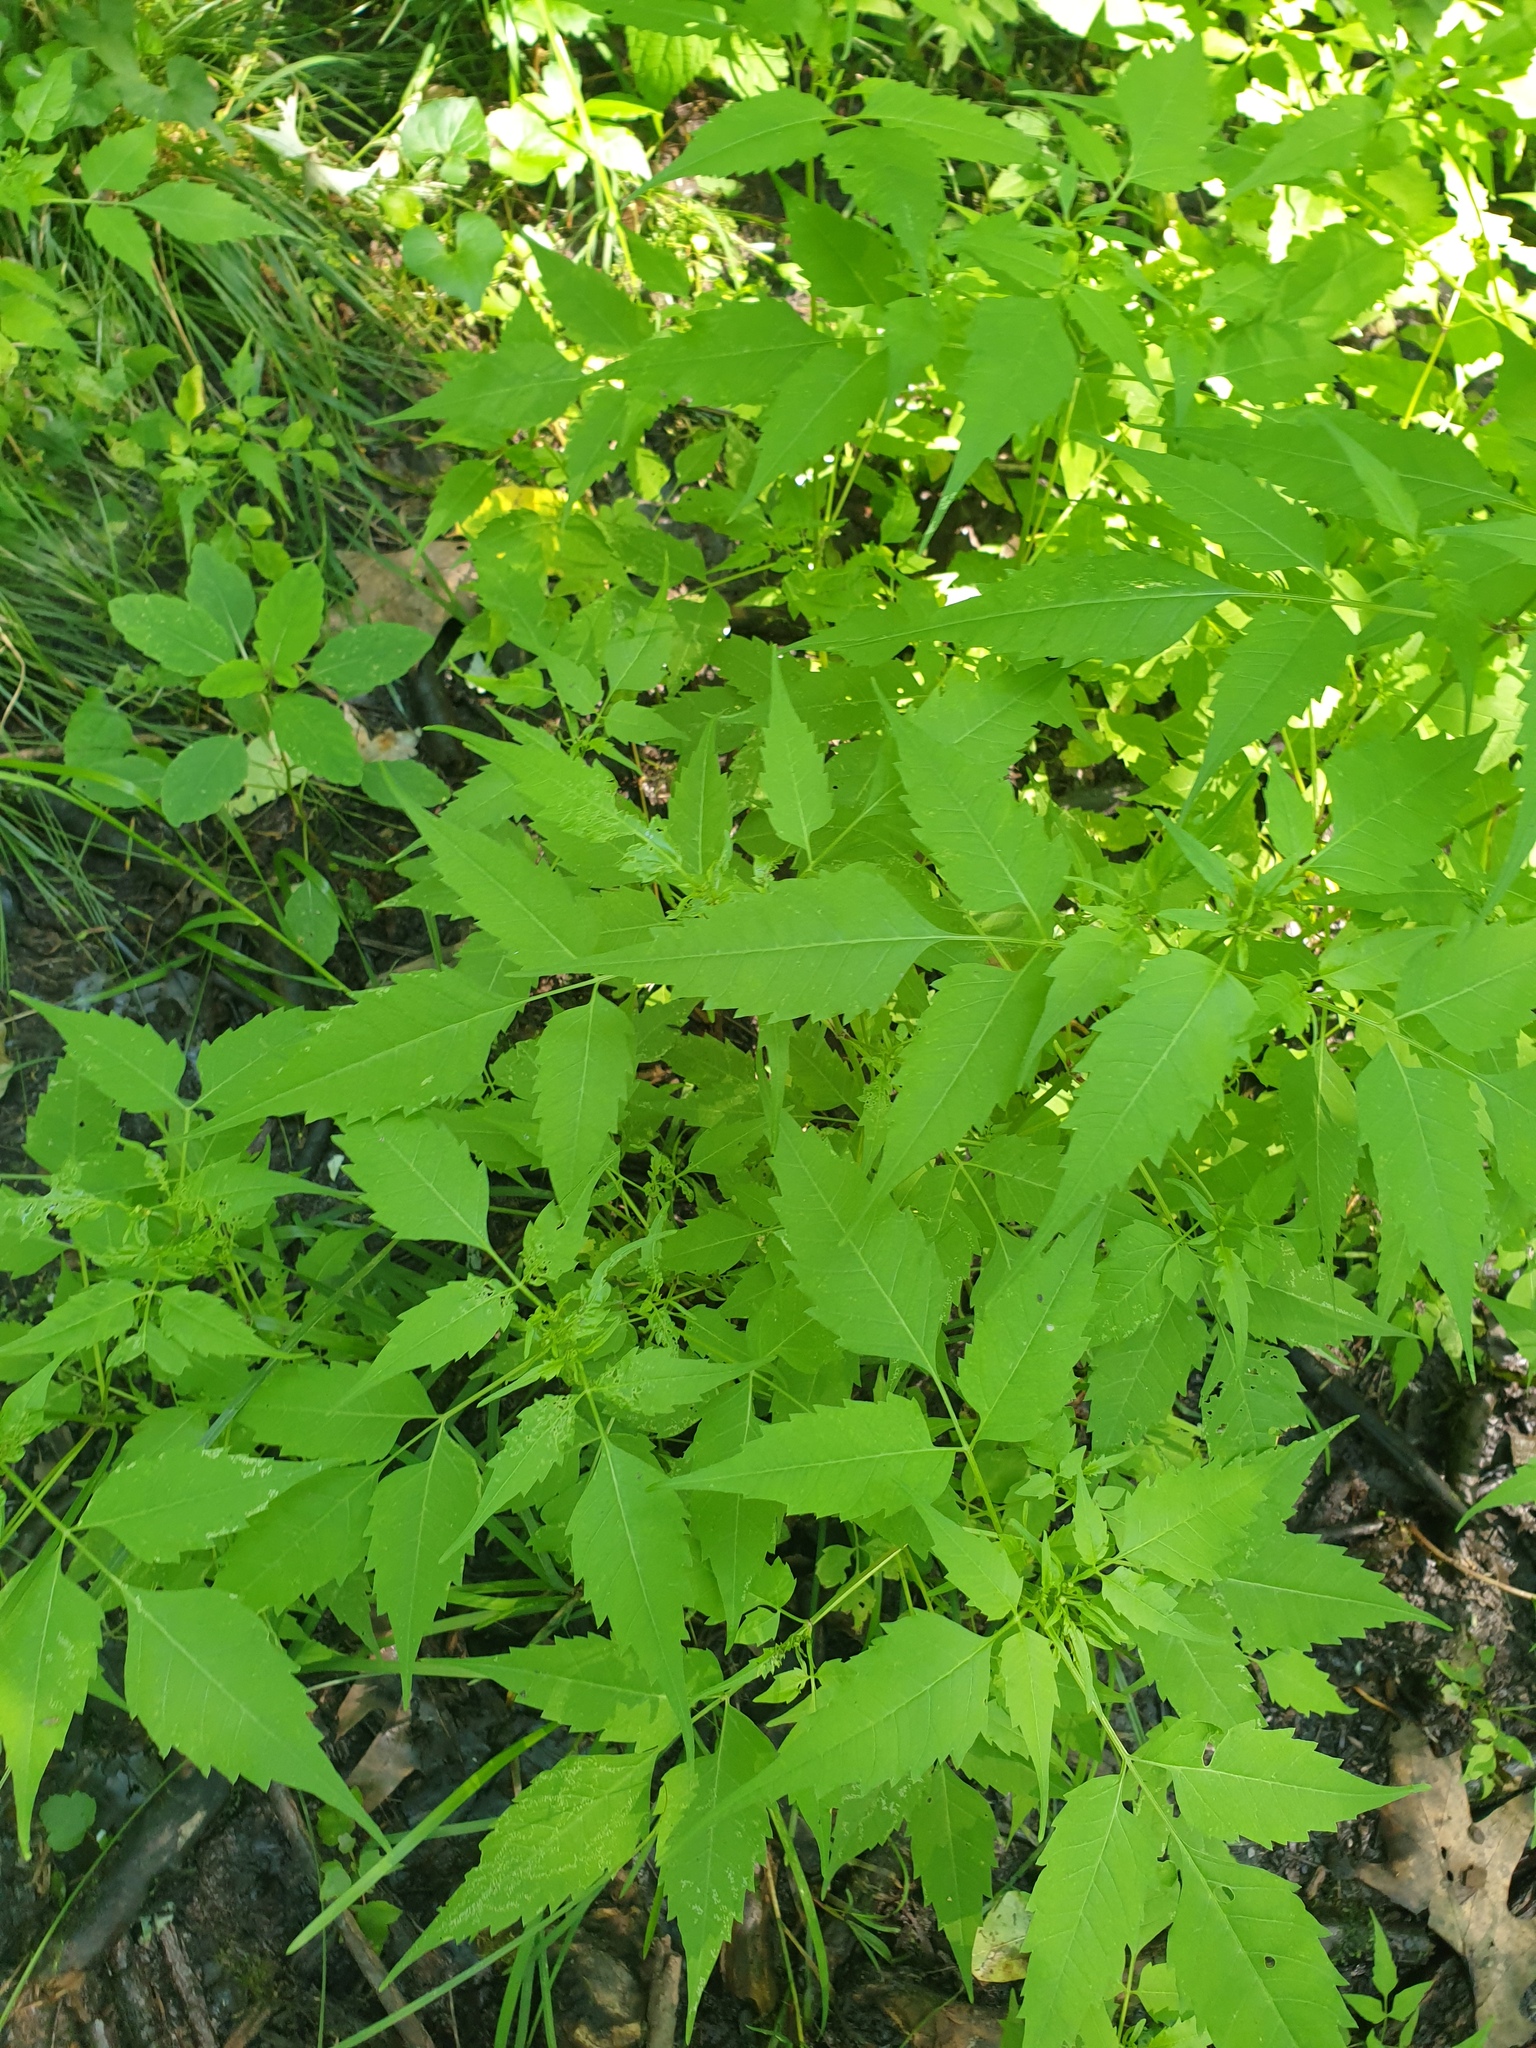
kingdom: Plantae
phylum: Tracheophyta
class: Magnoliopsida
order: Asterales
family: Asteraceae
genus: Bidens
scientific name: Bidens frondosa
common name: Beggarticks
